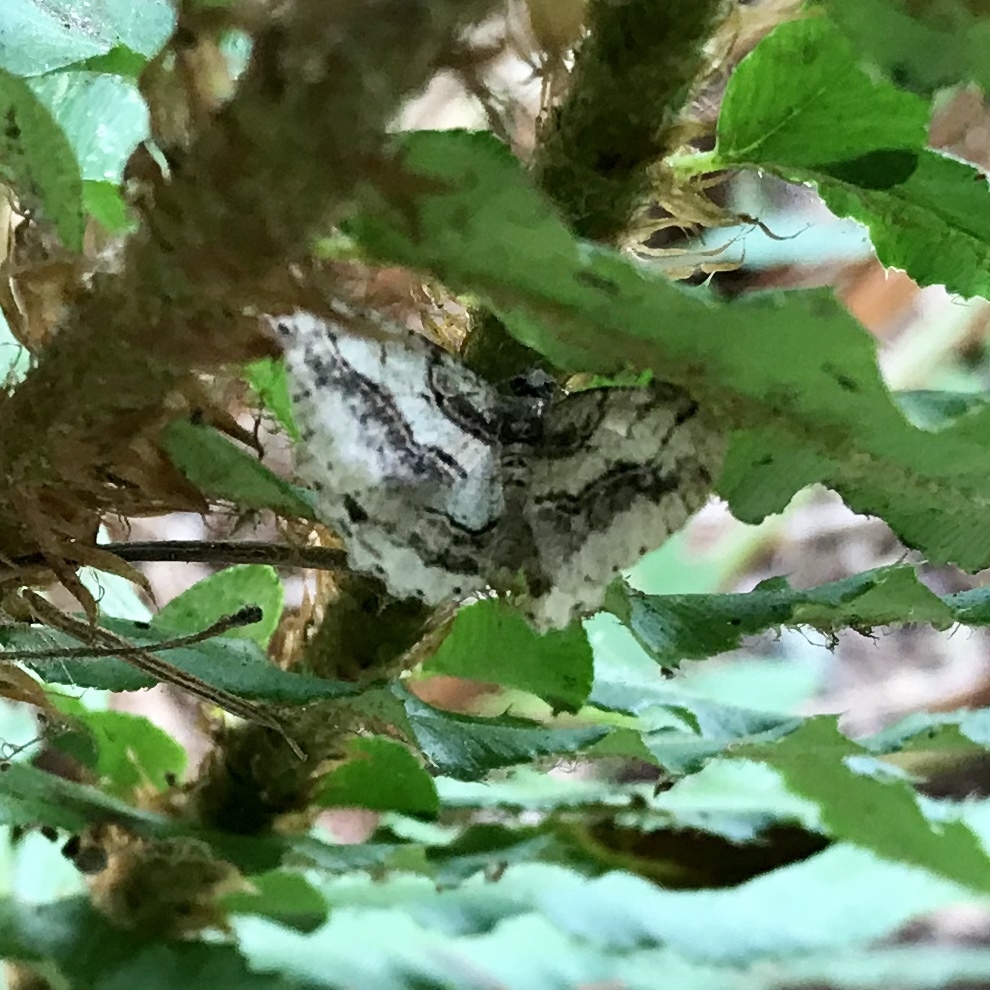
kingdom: Animalia
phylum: Arthropoda
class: Insecta
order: Lepidoptera
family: Geometridae
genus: Neoalcis
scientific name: Neoalcis californiaria
